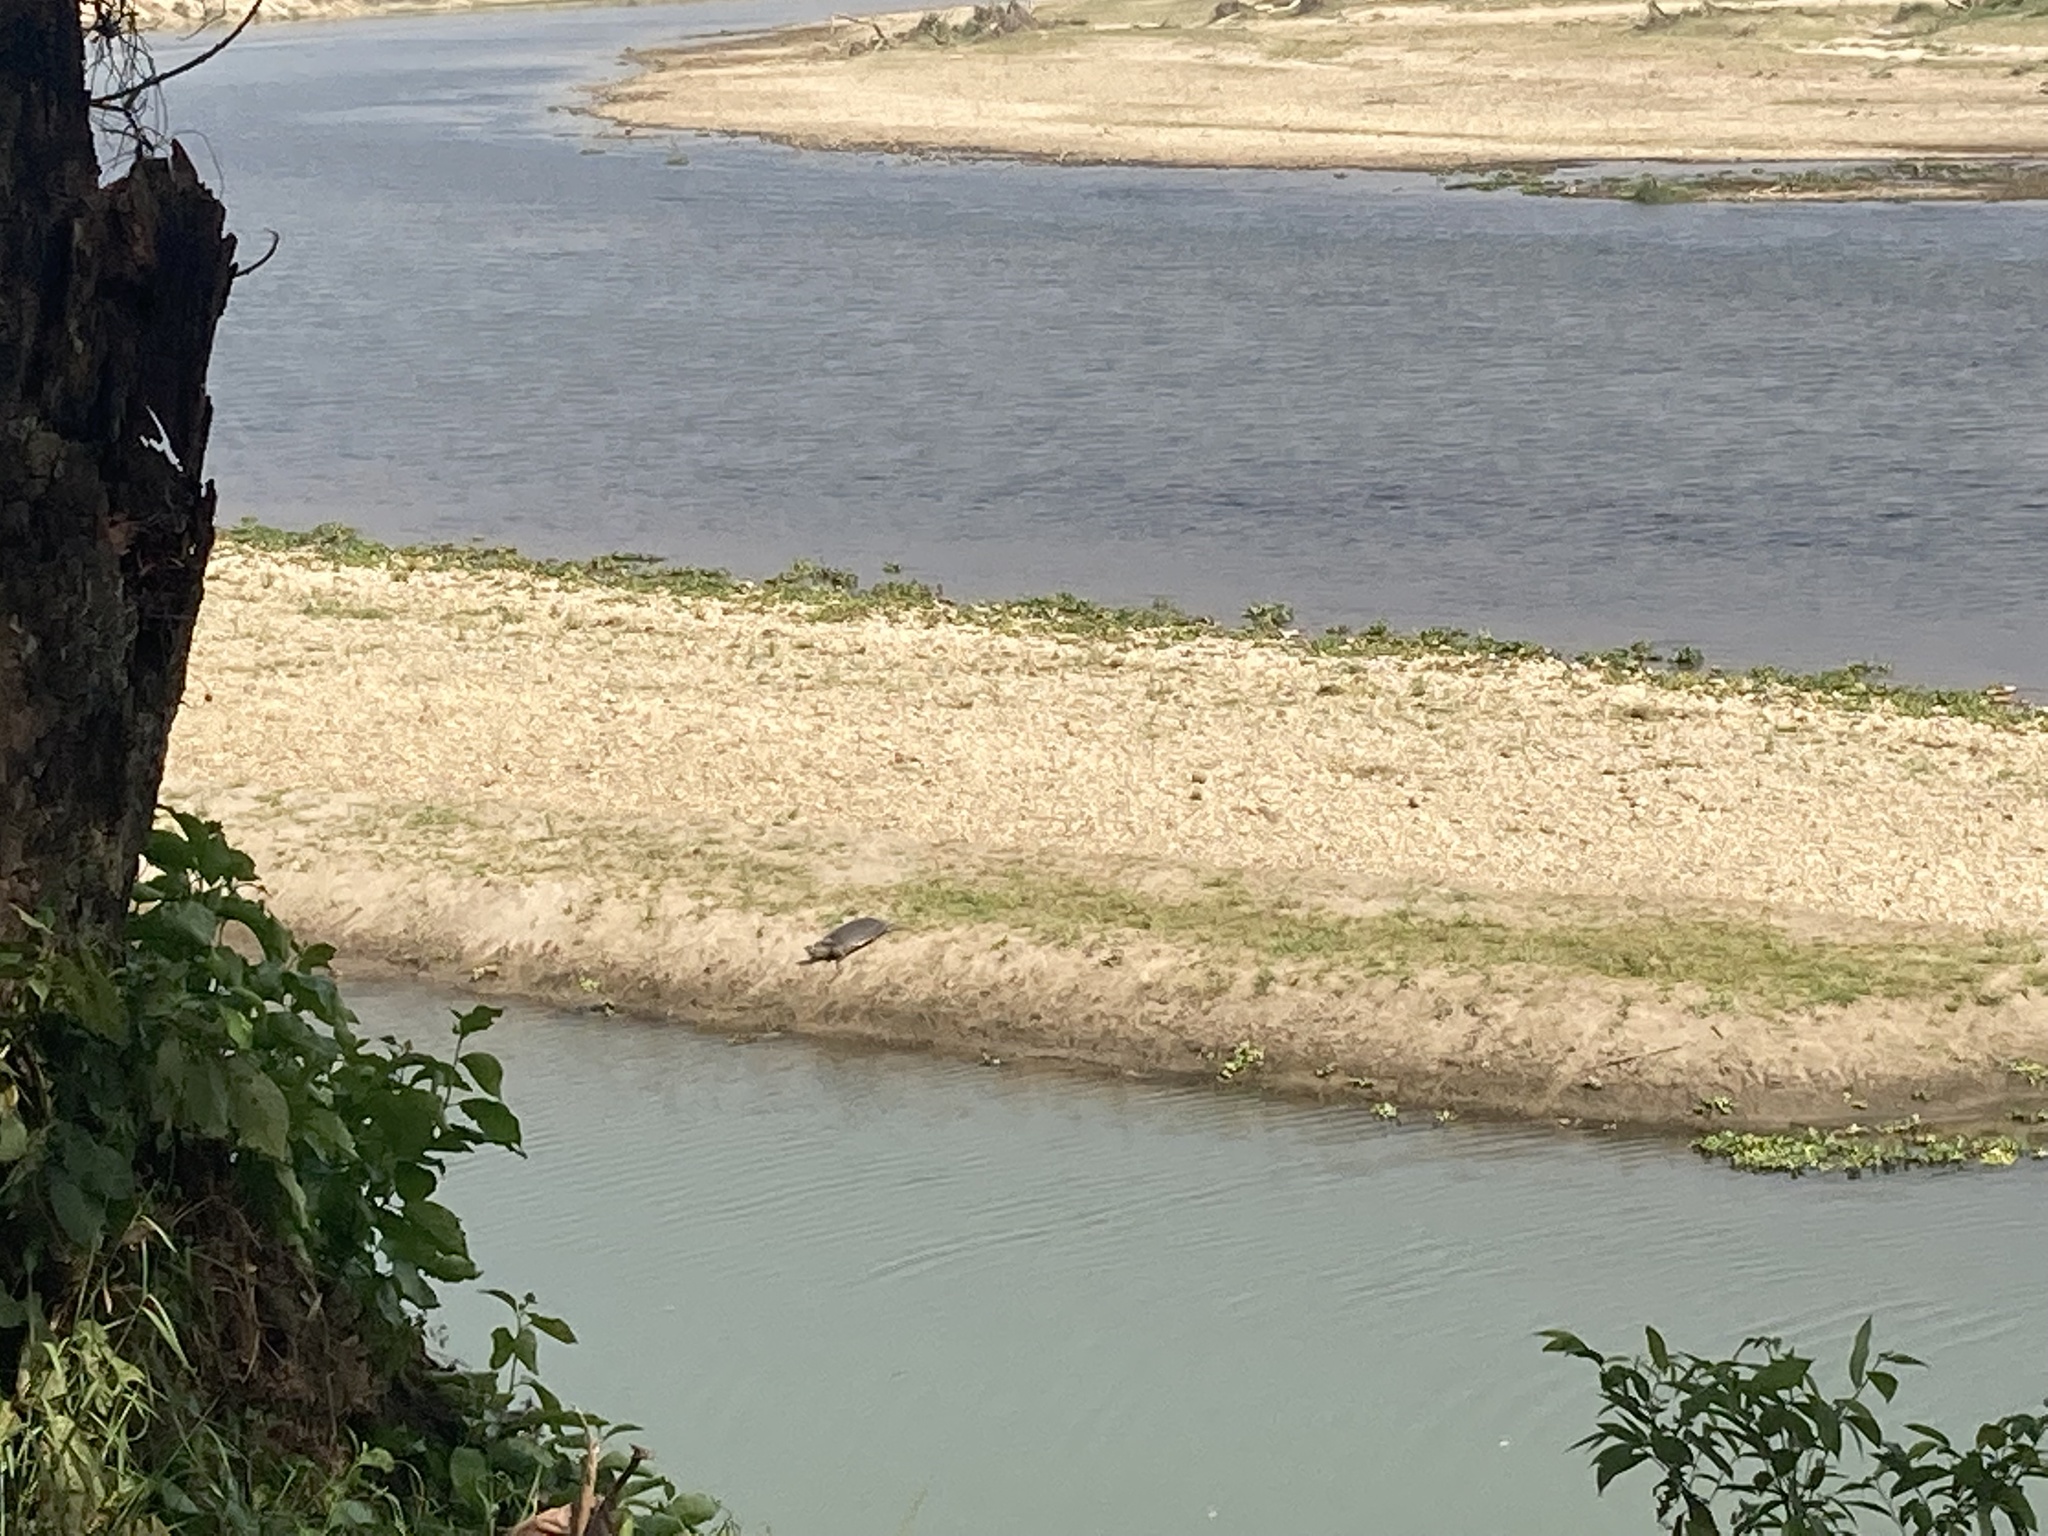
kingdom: Animalia
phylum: Chordata
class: Testudines
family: Trionychidae
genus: Nilssonia
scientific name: Nilssonia gangetica
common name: Indian softshell turtle
